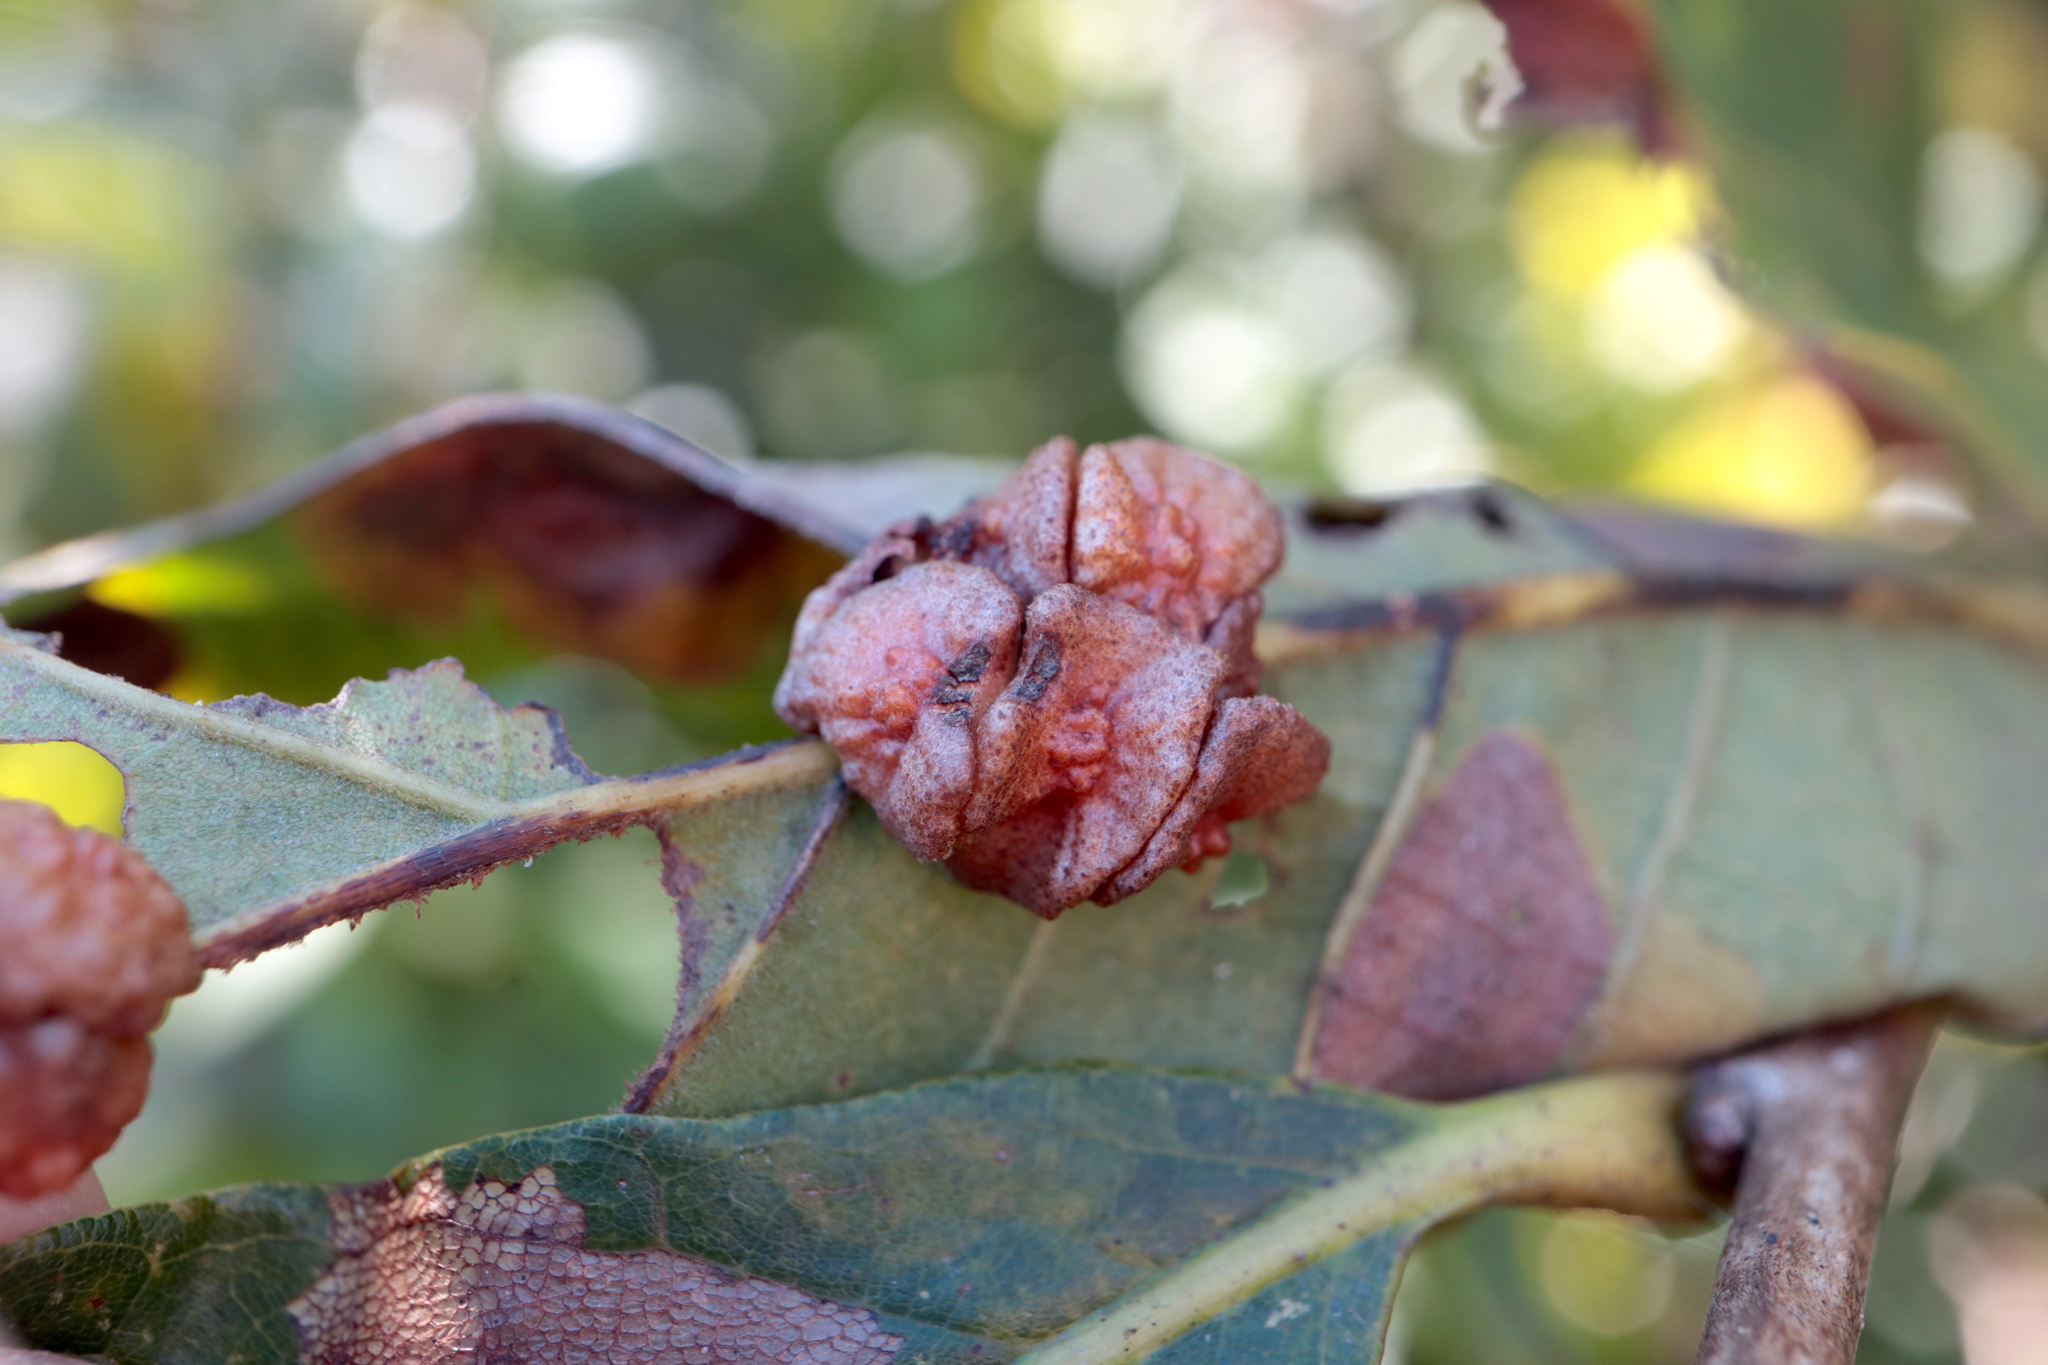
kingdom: Animalia
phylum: Arthropoda
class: Insecta
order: Hymenoptera
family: Cynipidae
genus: Andricus
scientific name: Andricus
